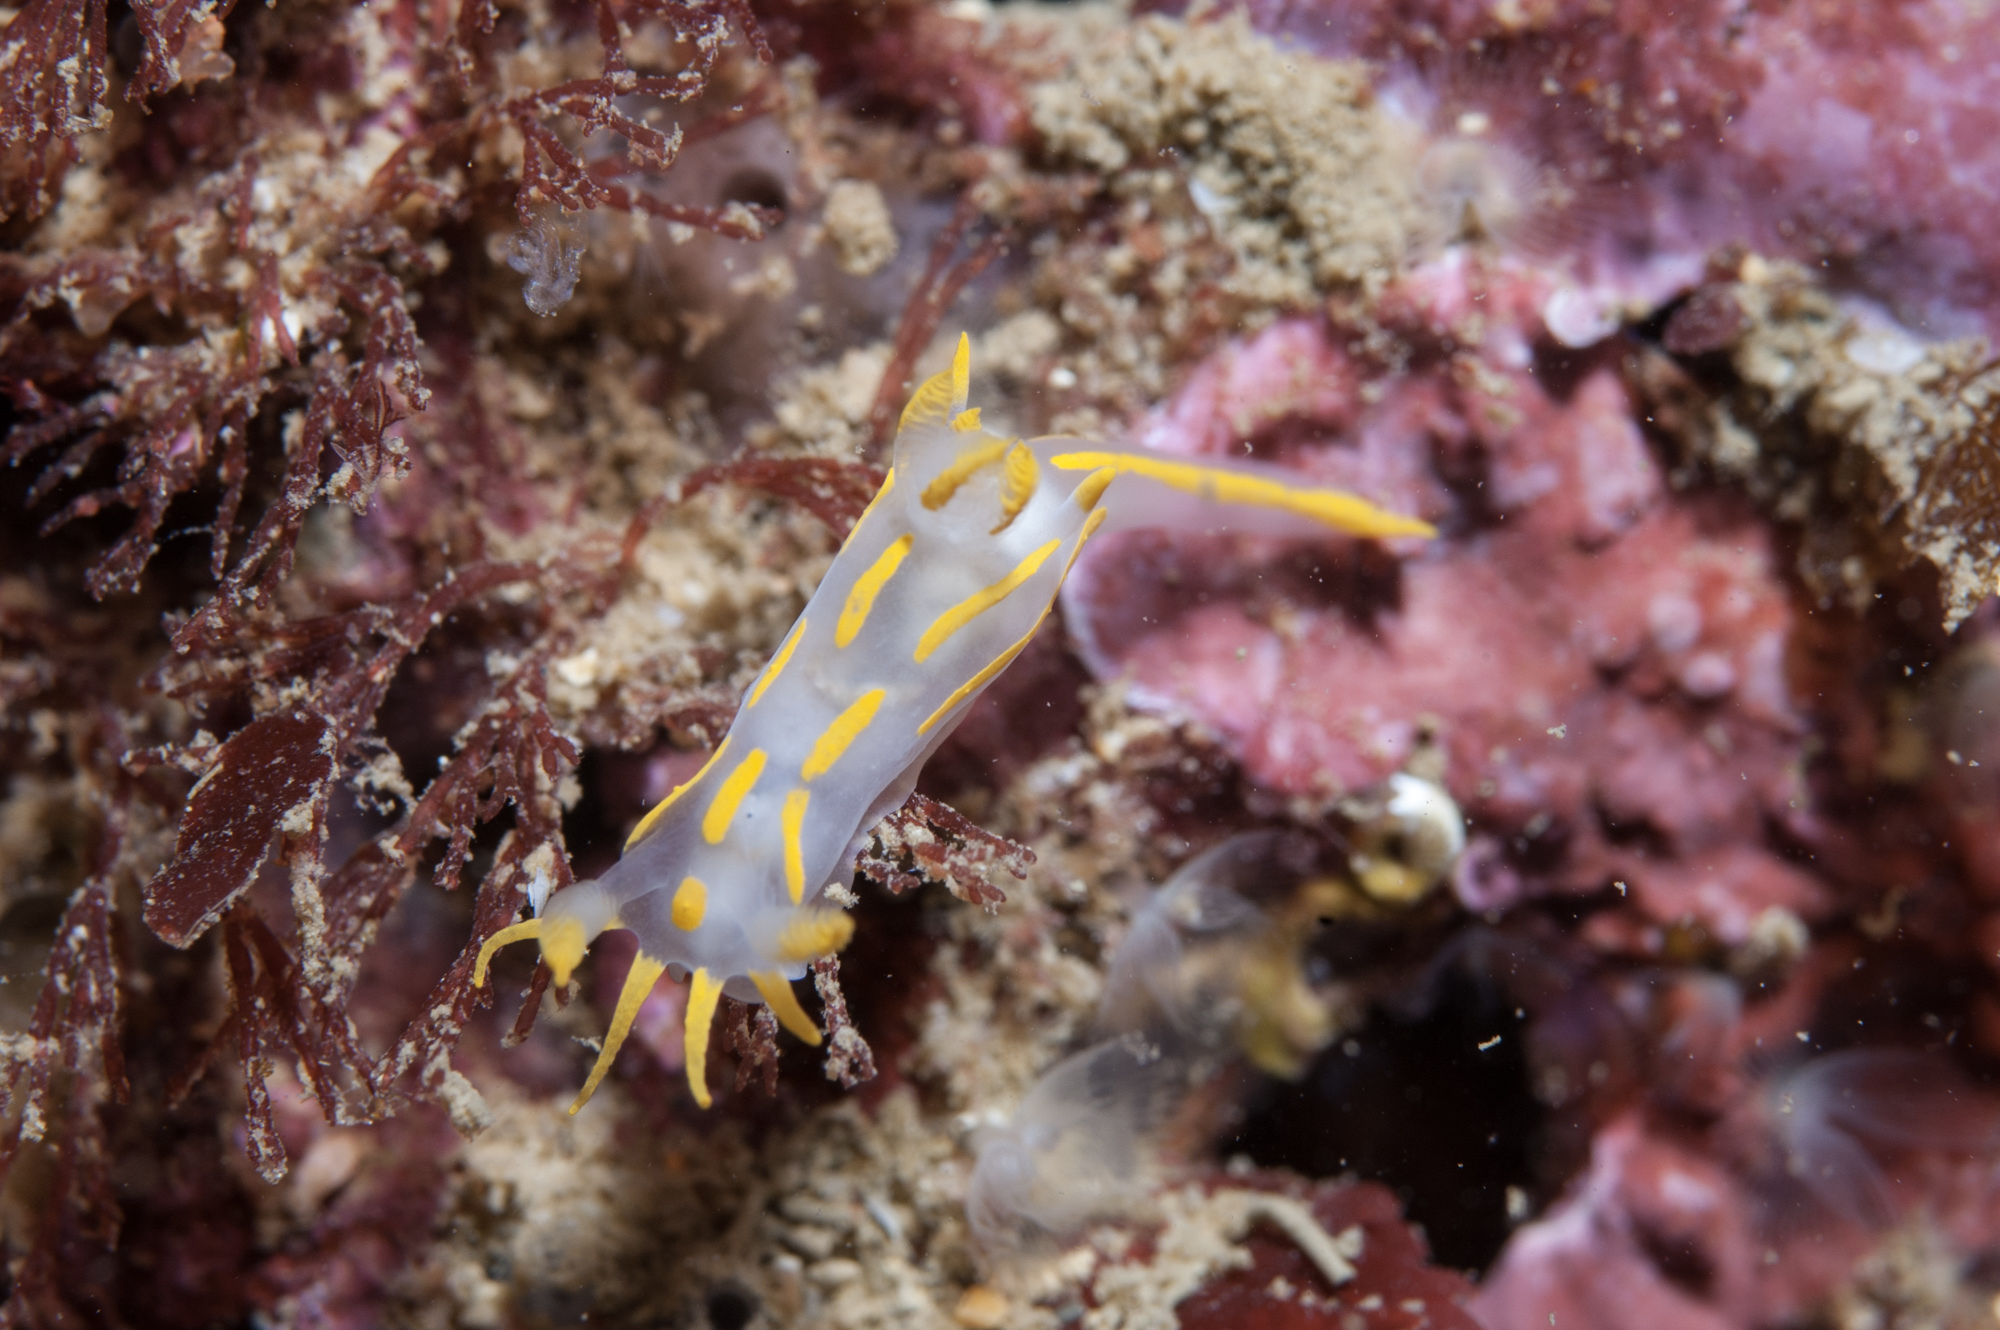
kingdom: Animalia
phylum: Mollusca
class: Gastropoda
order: Nudibranchia
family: Polyceridae
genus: Polycera
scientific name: Polycera quadrilineata
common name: Four-striped polycera
